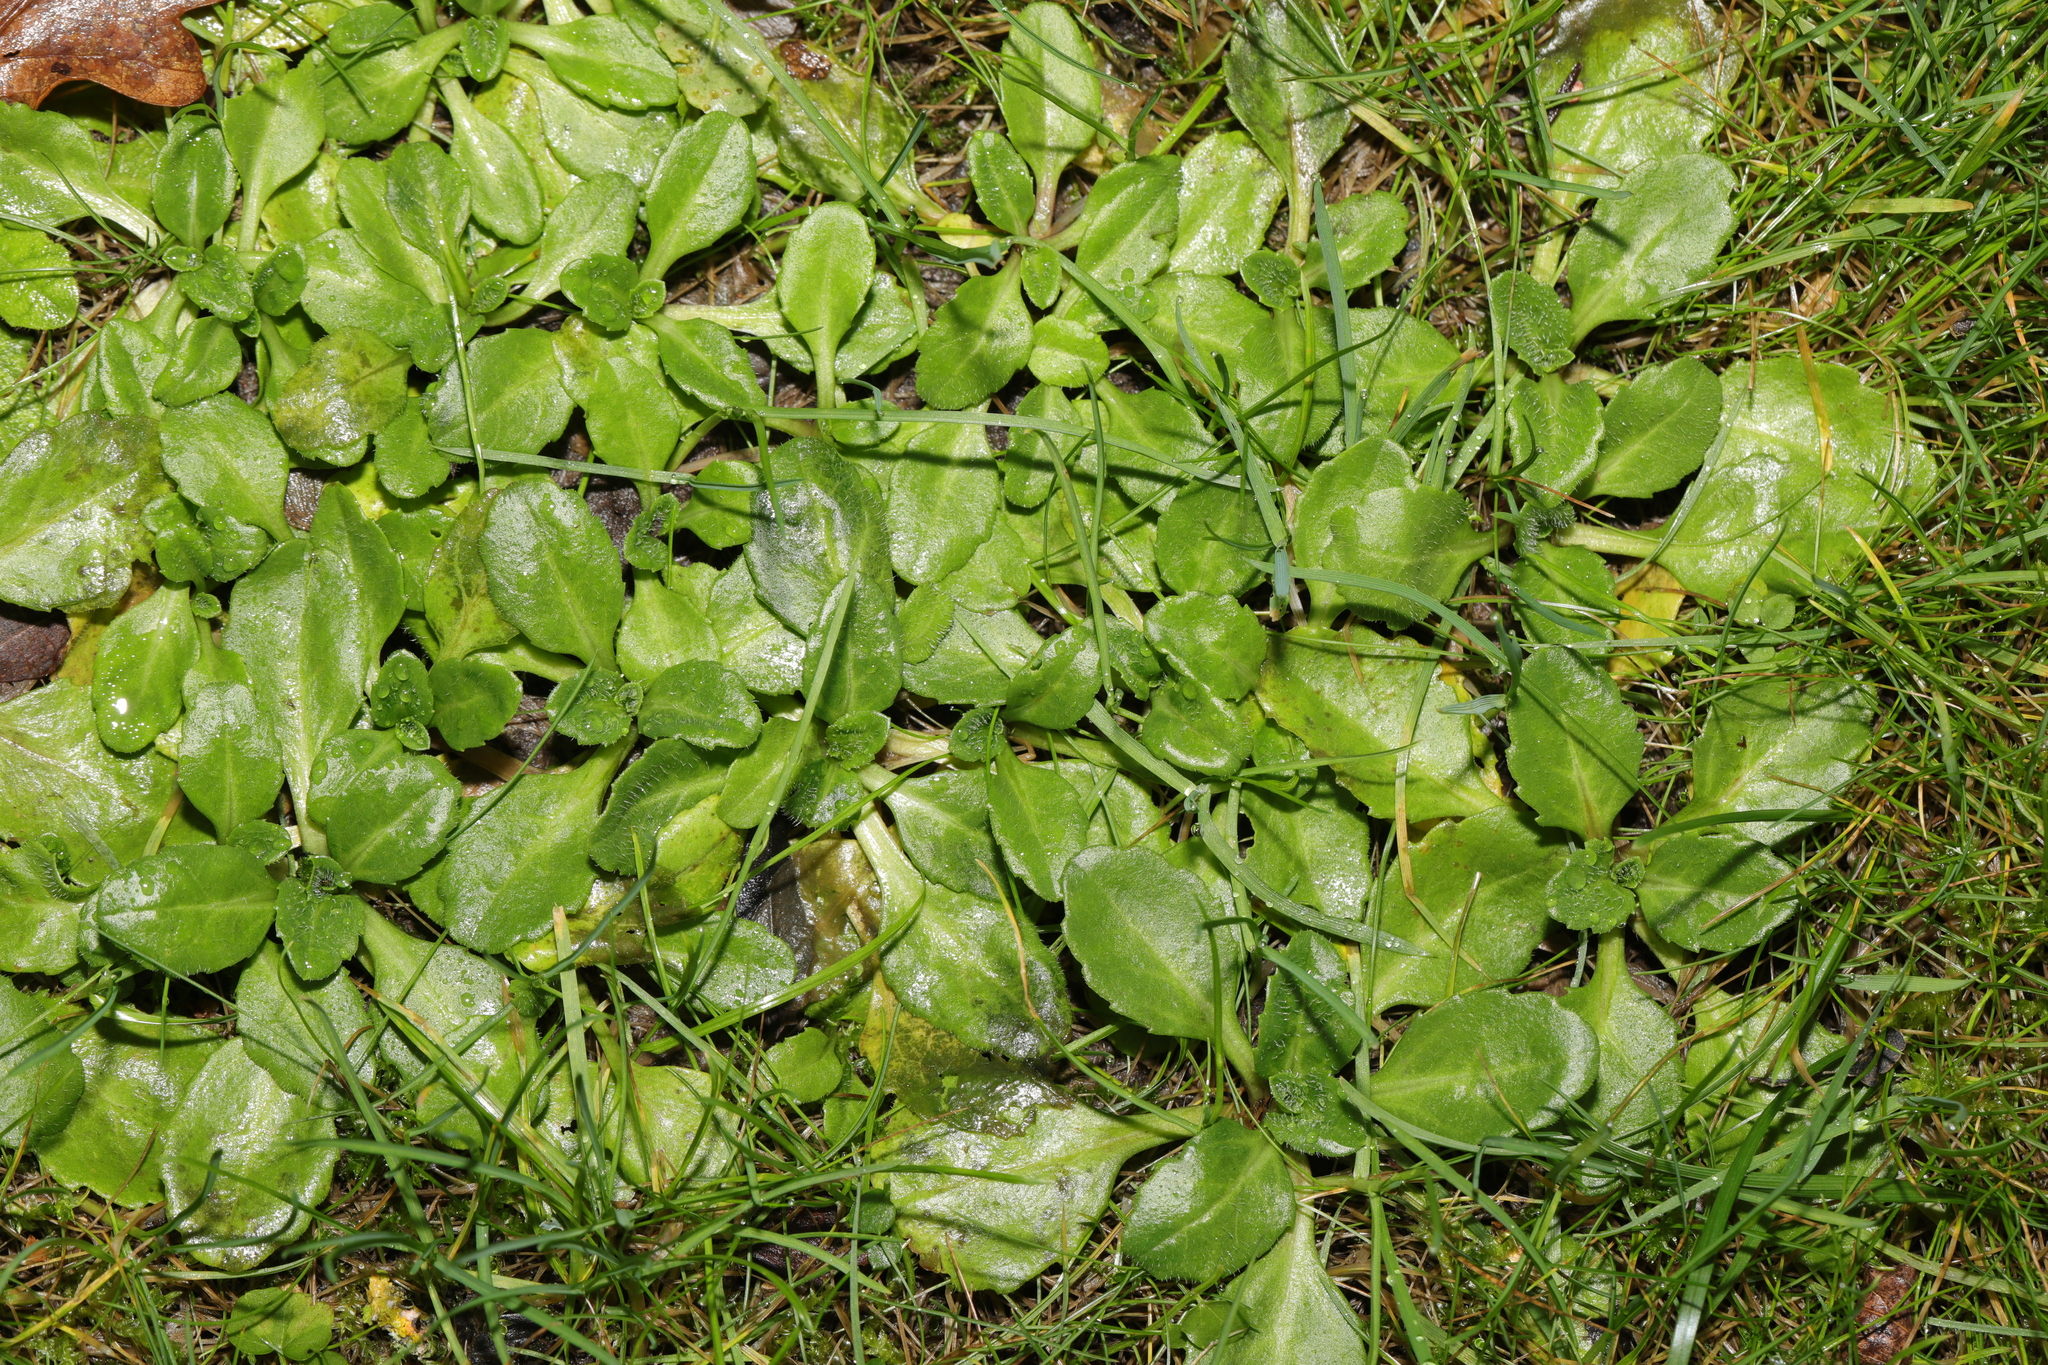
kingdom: Plantae
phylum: Tracheophyta
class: Magnoliopsida
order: Asterales
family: Asteraceae
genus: Bellis
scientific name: Bellis perennis
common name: Lawndaisy
